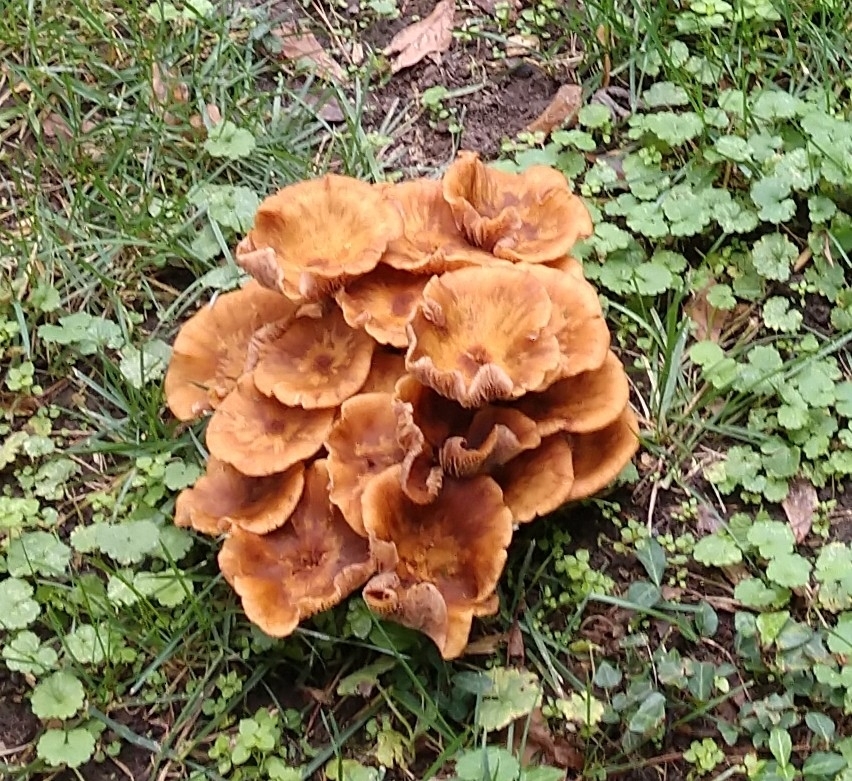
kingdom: Fungi
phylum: Basidiomycota
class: Agaricomycetes
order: Agaricales
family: Physalacriaceae
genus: Desarmillaria
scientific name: Desarmillaria caespitosa
